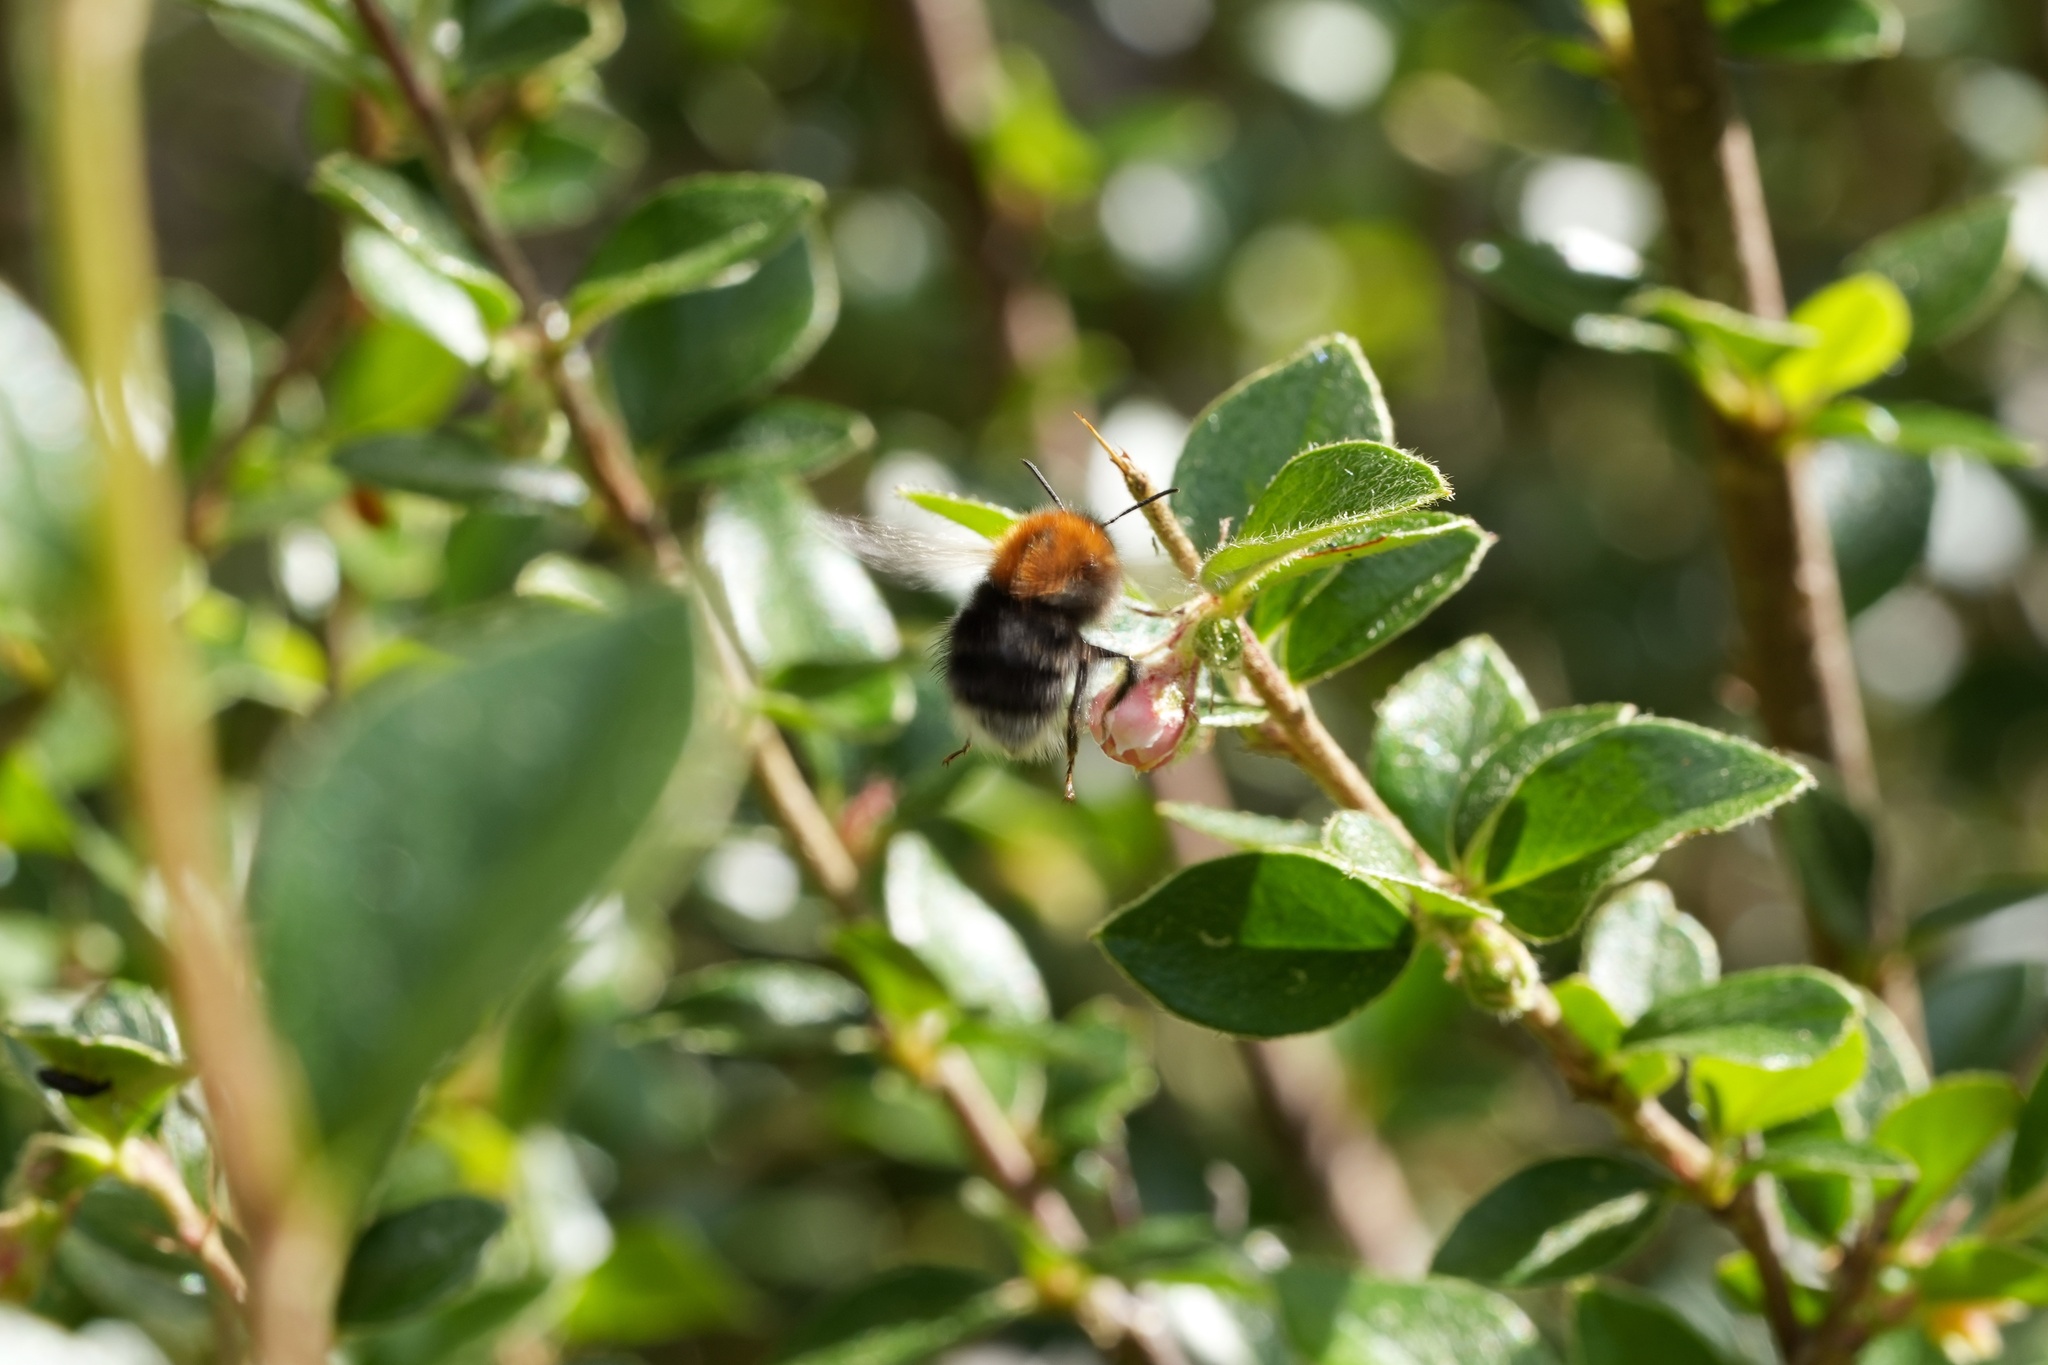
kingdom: Animalia
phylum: Arthropoda
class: Insecta
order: Hymenoptera
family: Apidae
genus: Bombus
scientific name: Bombus hypnorum
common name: New garden bumblebee
